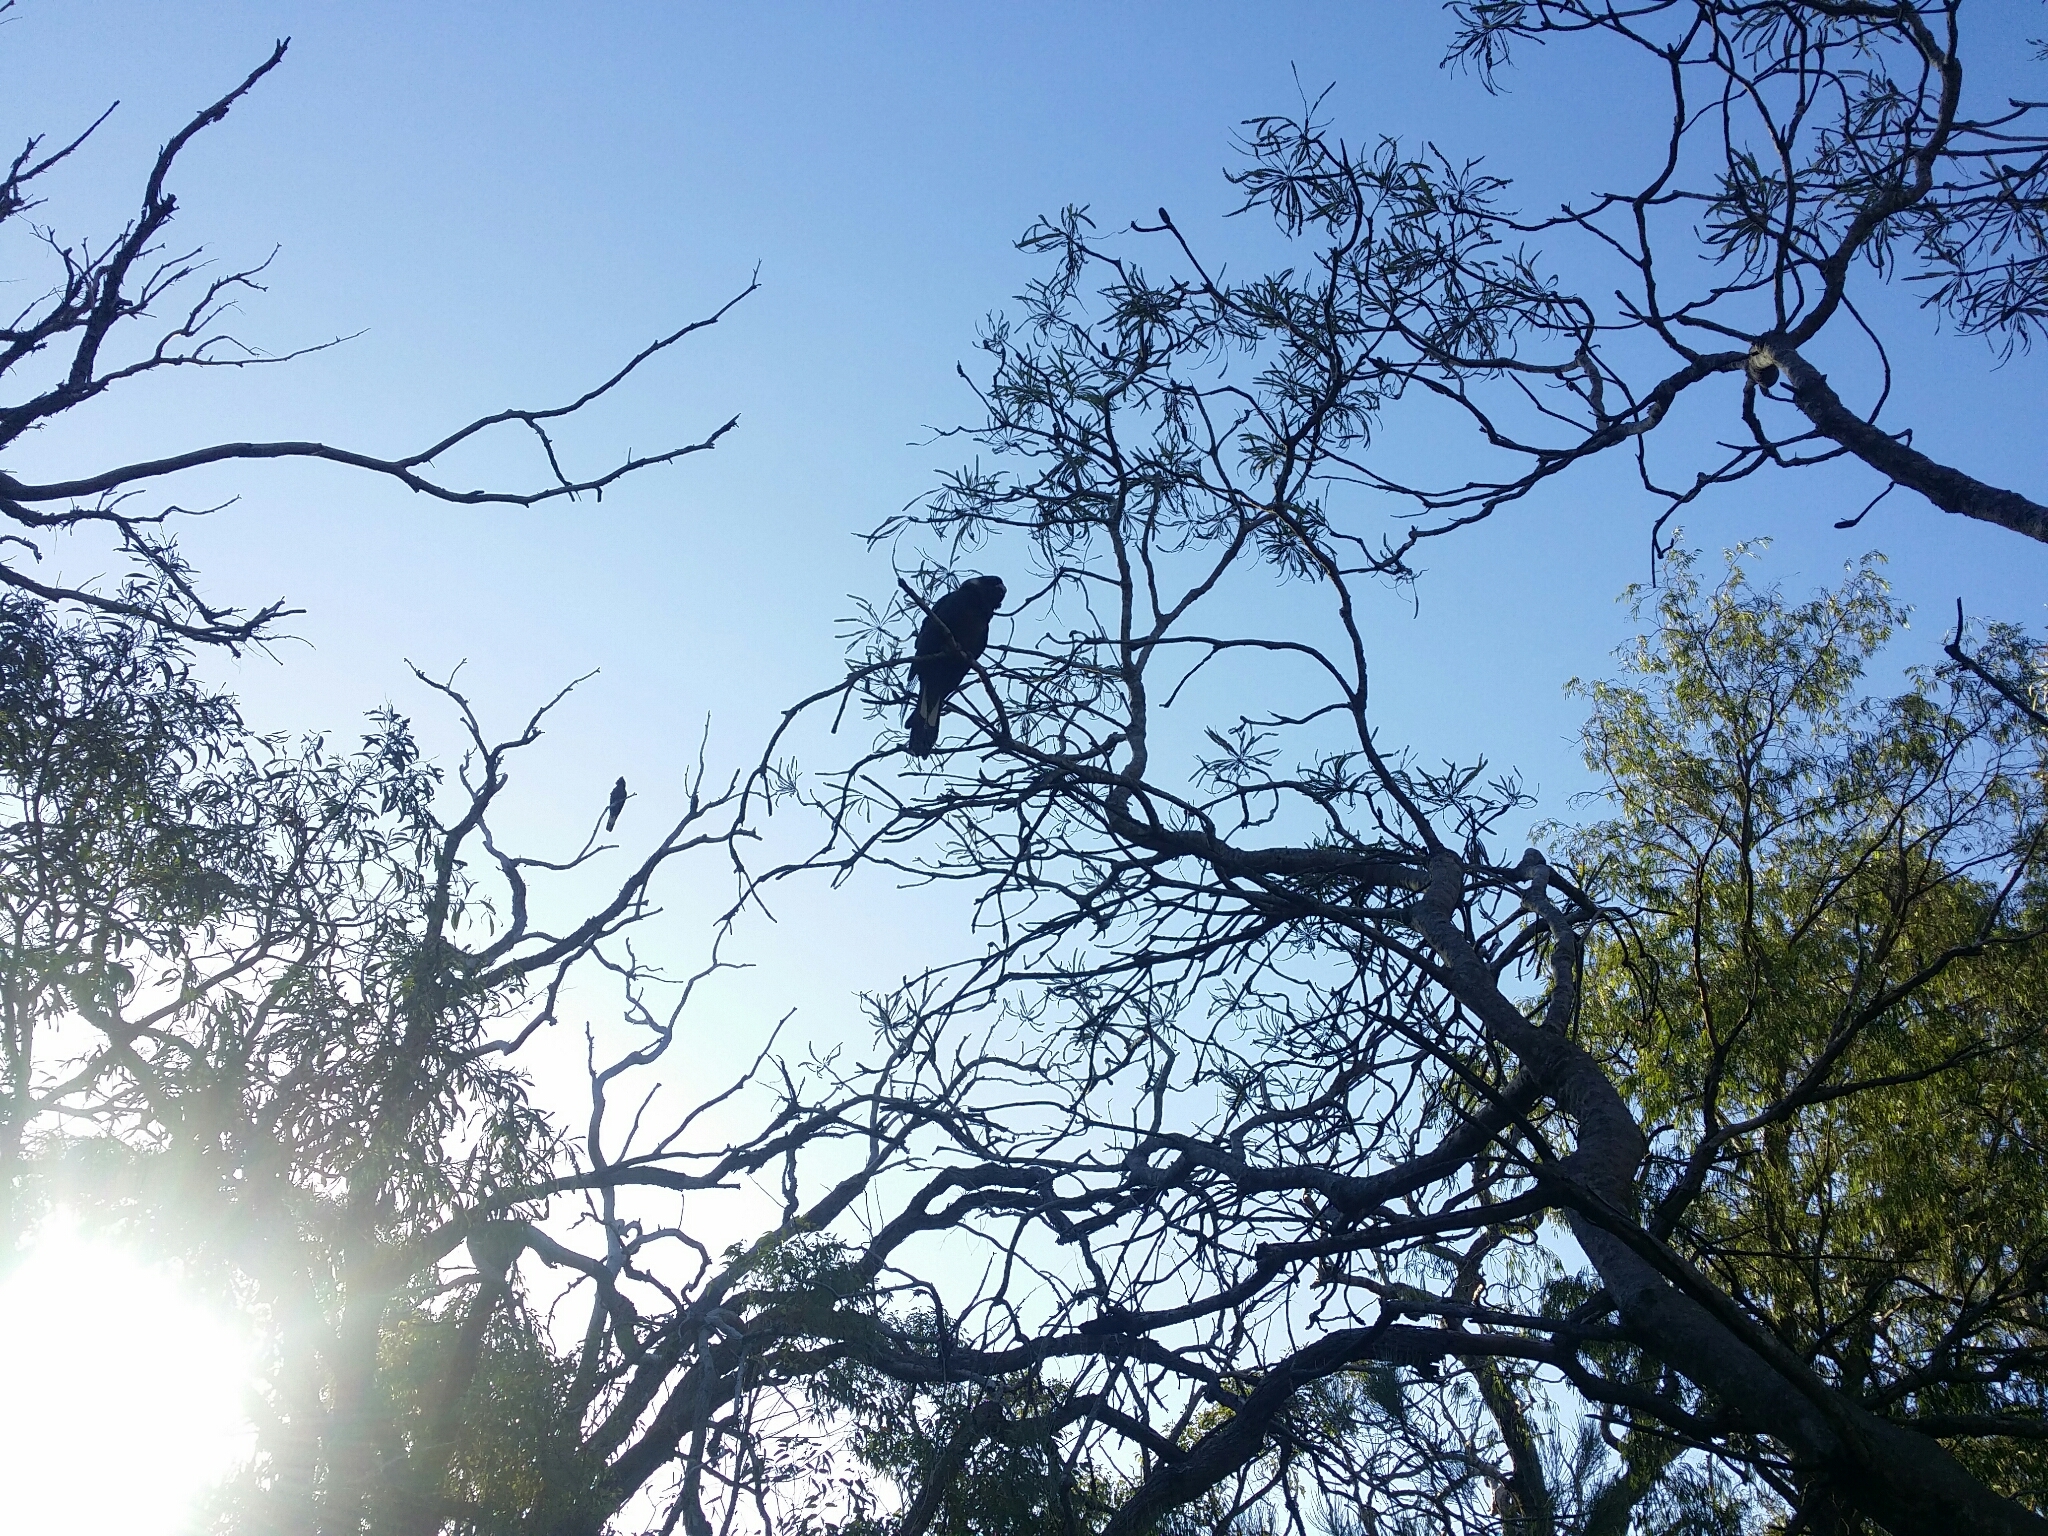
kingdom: Animalia
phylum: Chordata
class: Aves
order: Psittaciformes
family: Cacatuidae
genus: Zanda
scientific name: Zanda latirostris
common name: Short-billed black-cockatoo
